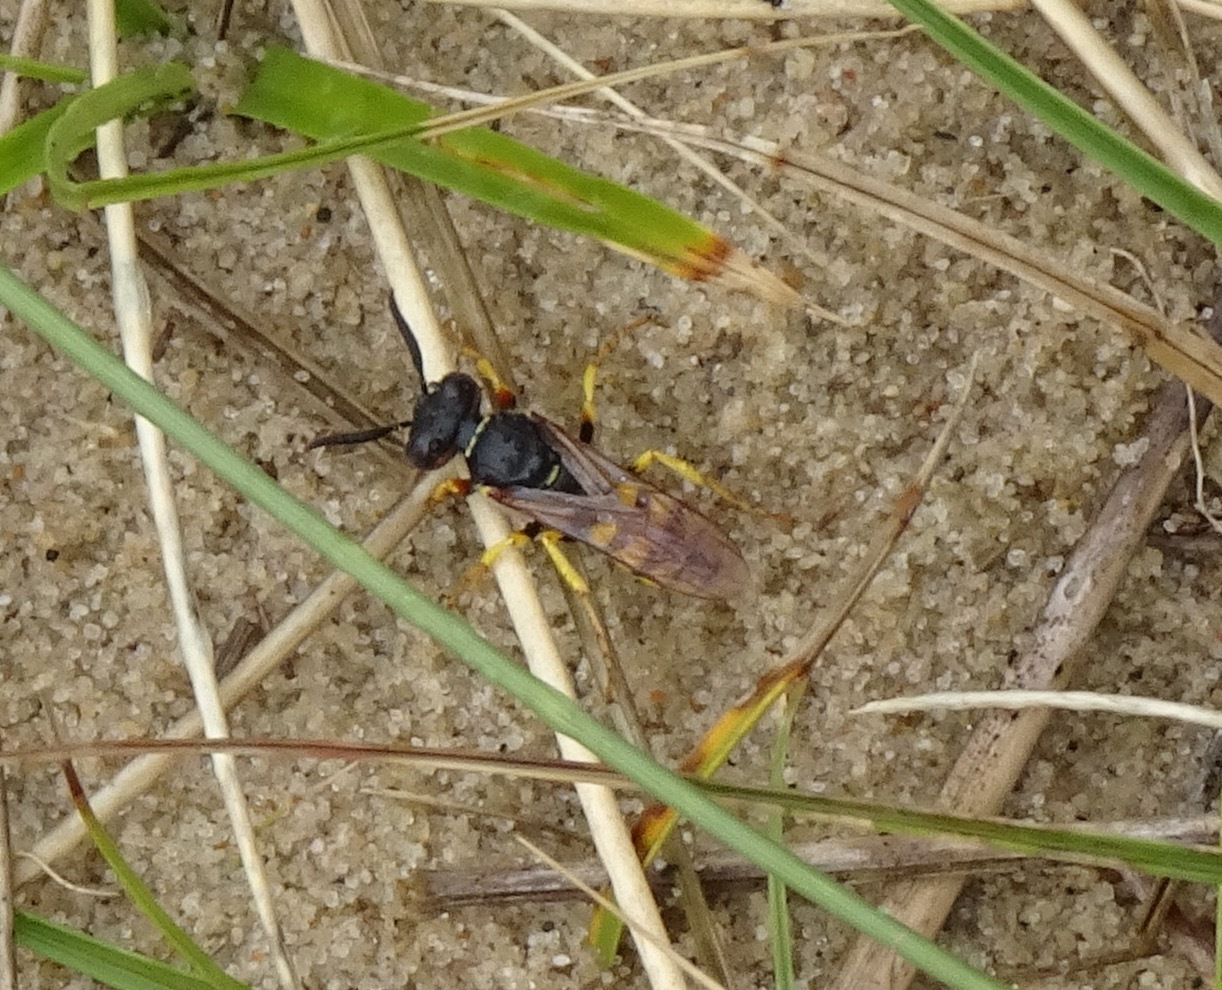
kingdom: Animalia
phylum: Arthropoda
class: Insecta
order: Hymenoptera
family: Crabronidae
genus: Philanthus
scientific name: Philanthus triangulum
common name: Bee wolf
